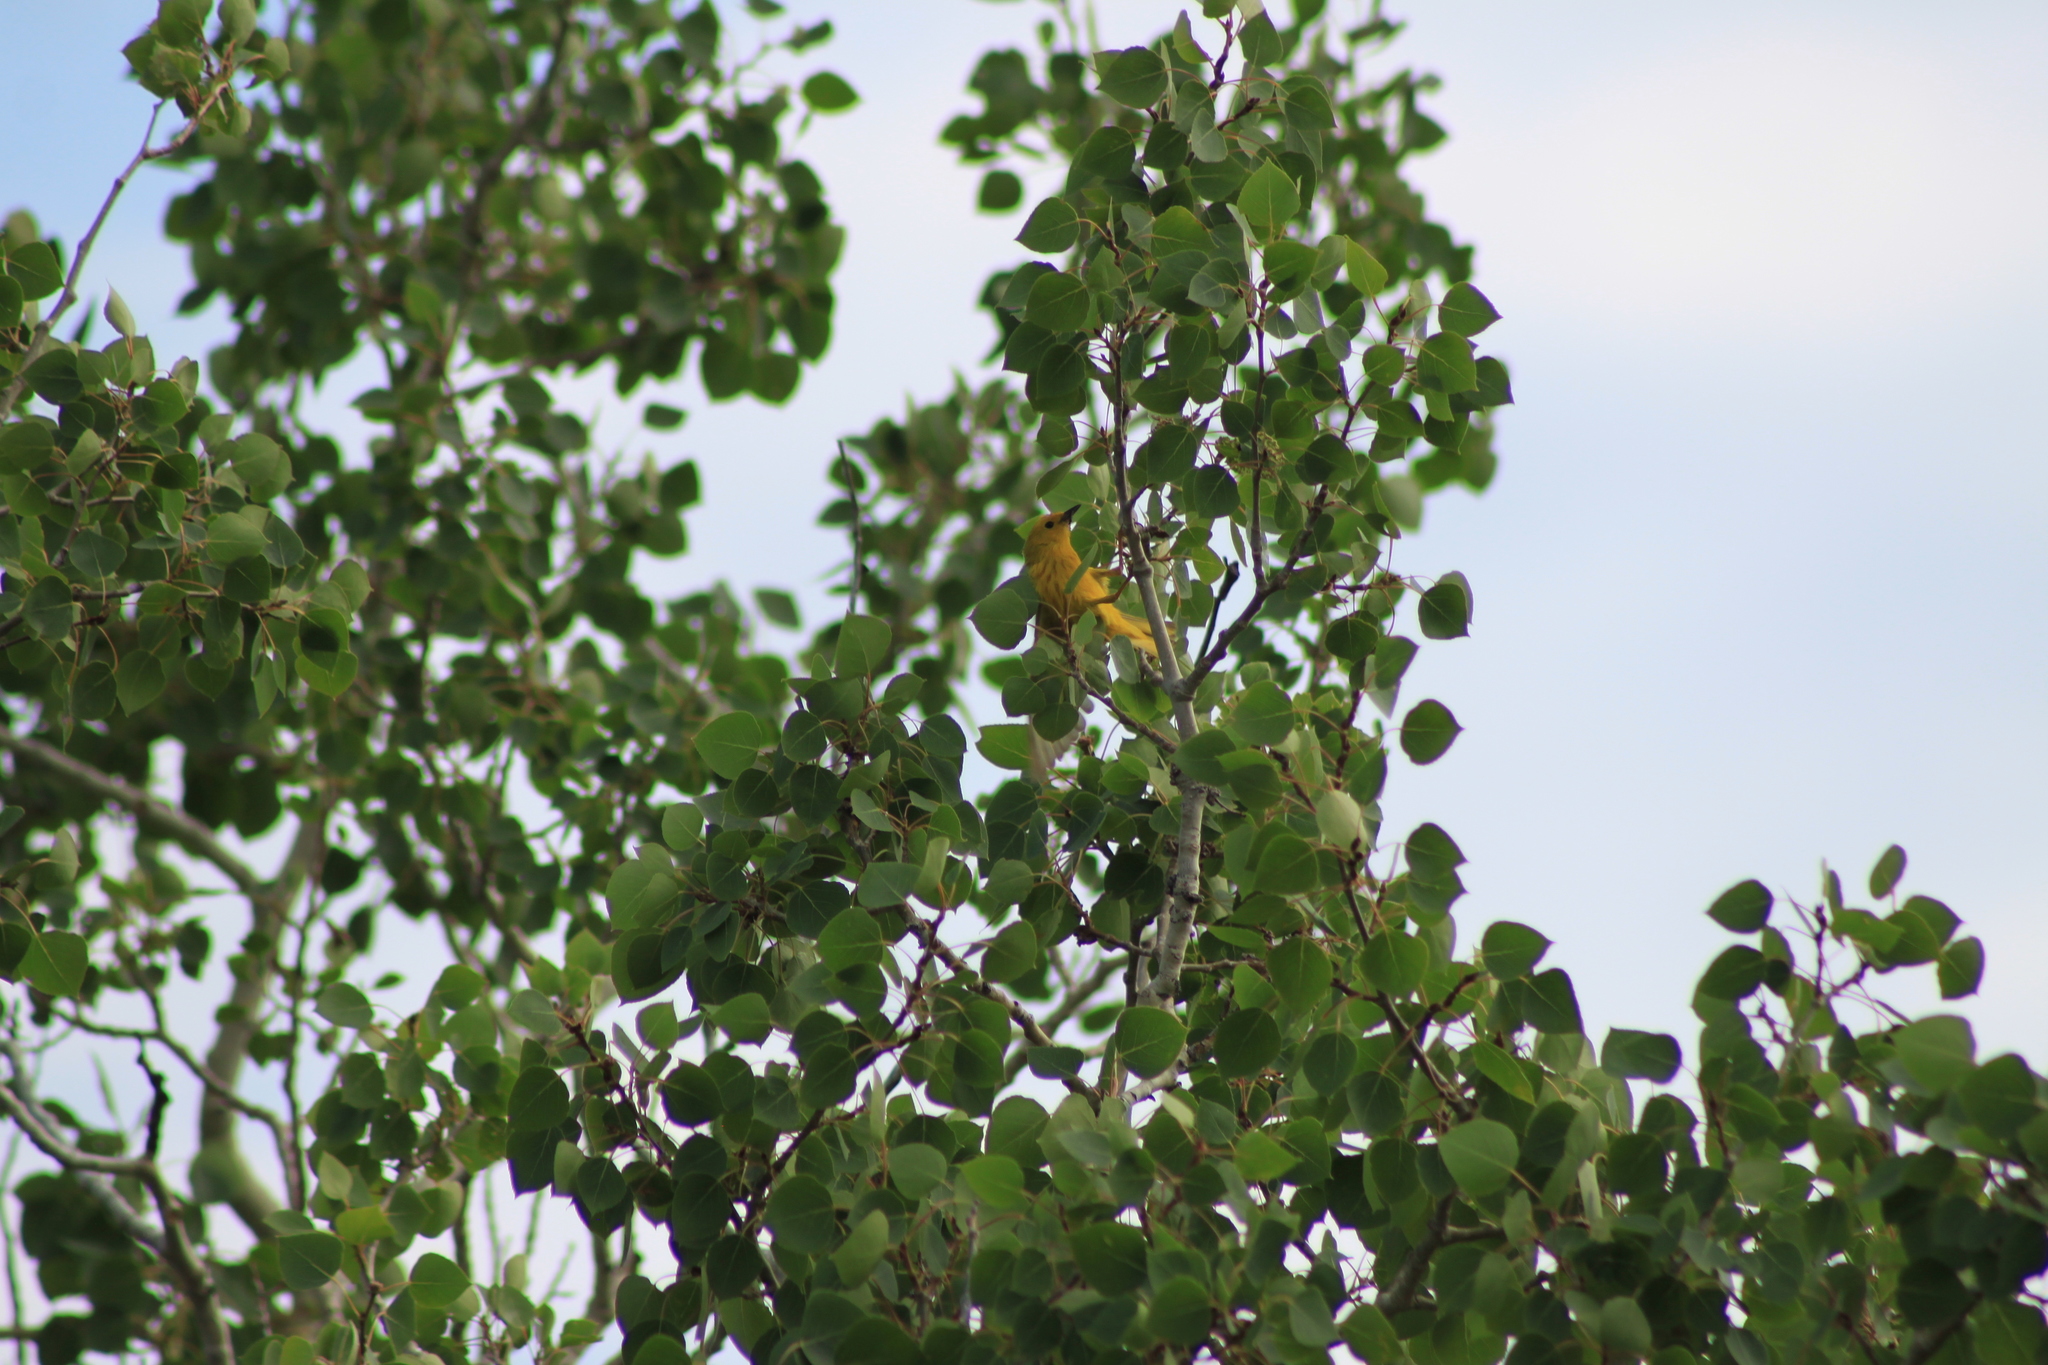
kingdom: Animalia
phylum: Chordata
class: Aves
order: Passeriformes
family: Parulidae
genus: Setophaga
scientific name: Setophaga petechia
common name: Yellow warbler
